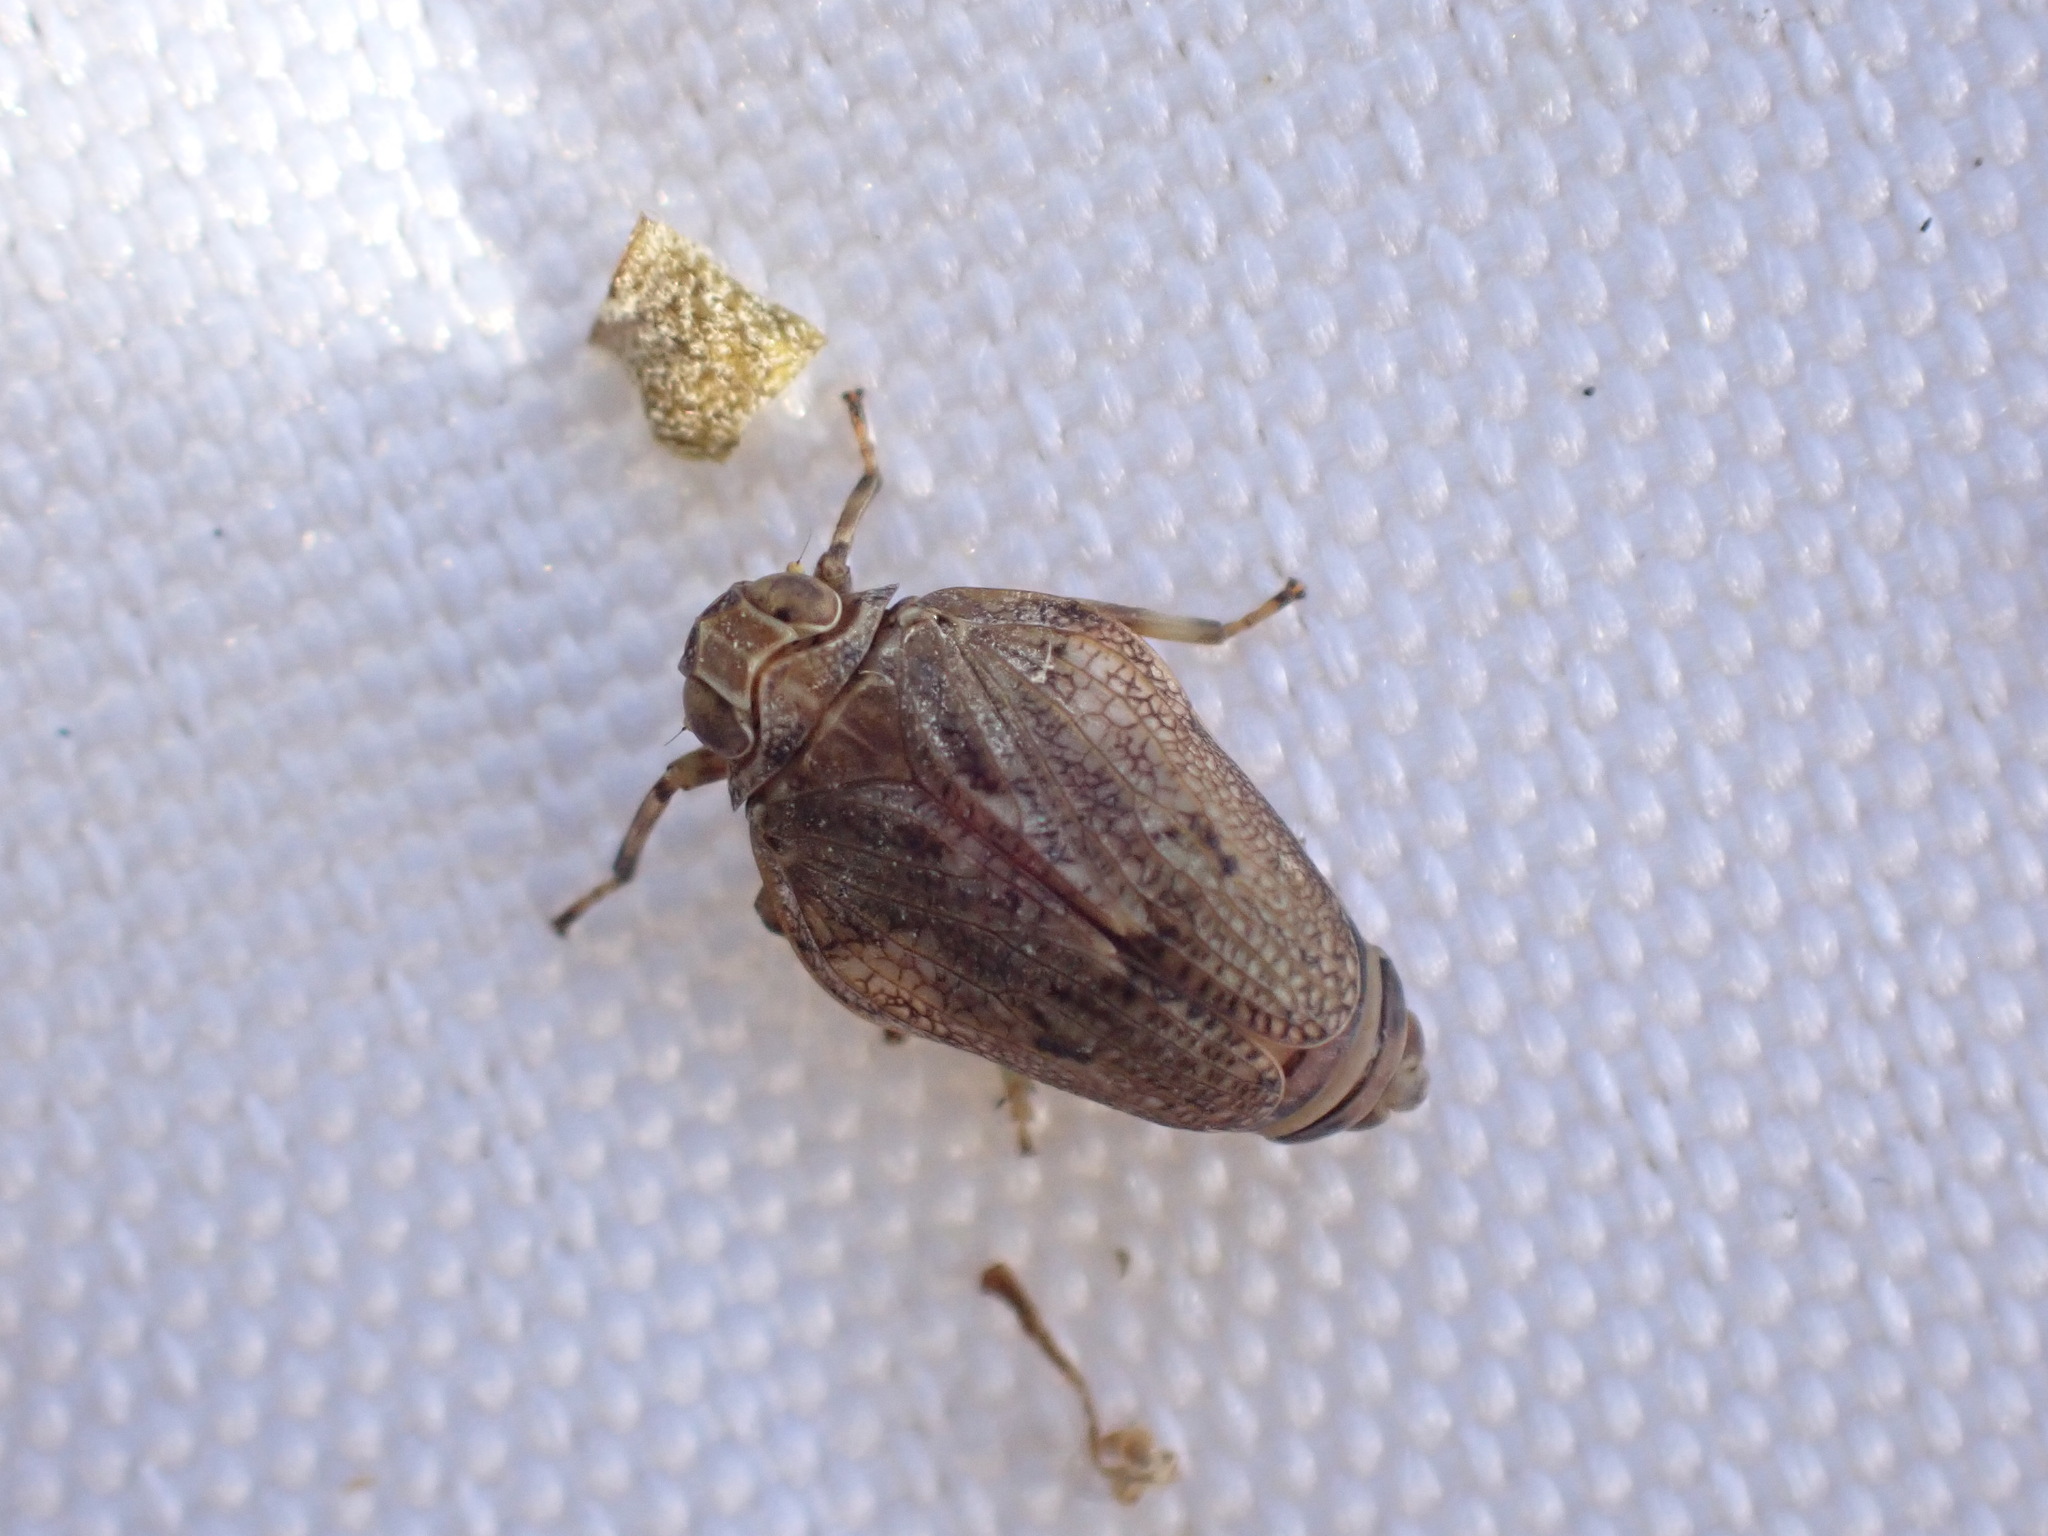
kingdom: Animalia
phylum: Arthropoda
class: Insecta
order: Hemiptera
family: Issidae
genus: Issus
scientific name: Issus coleoptratus
